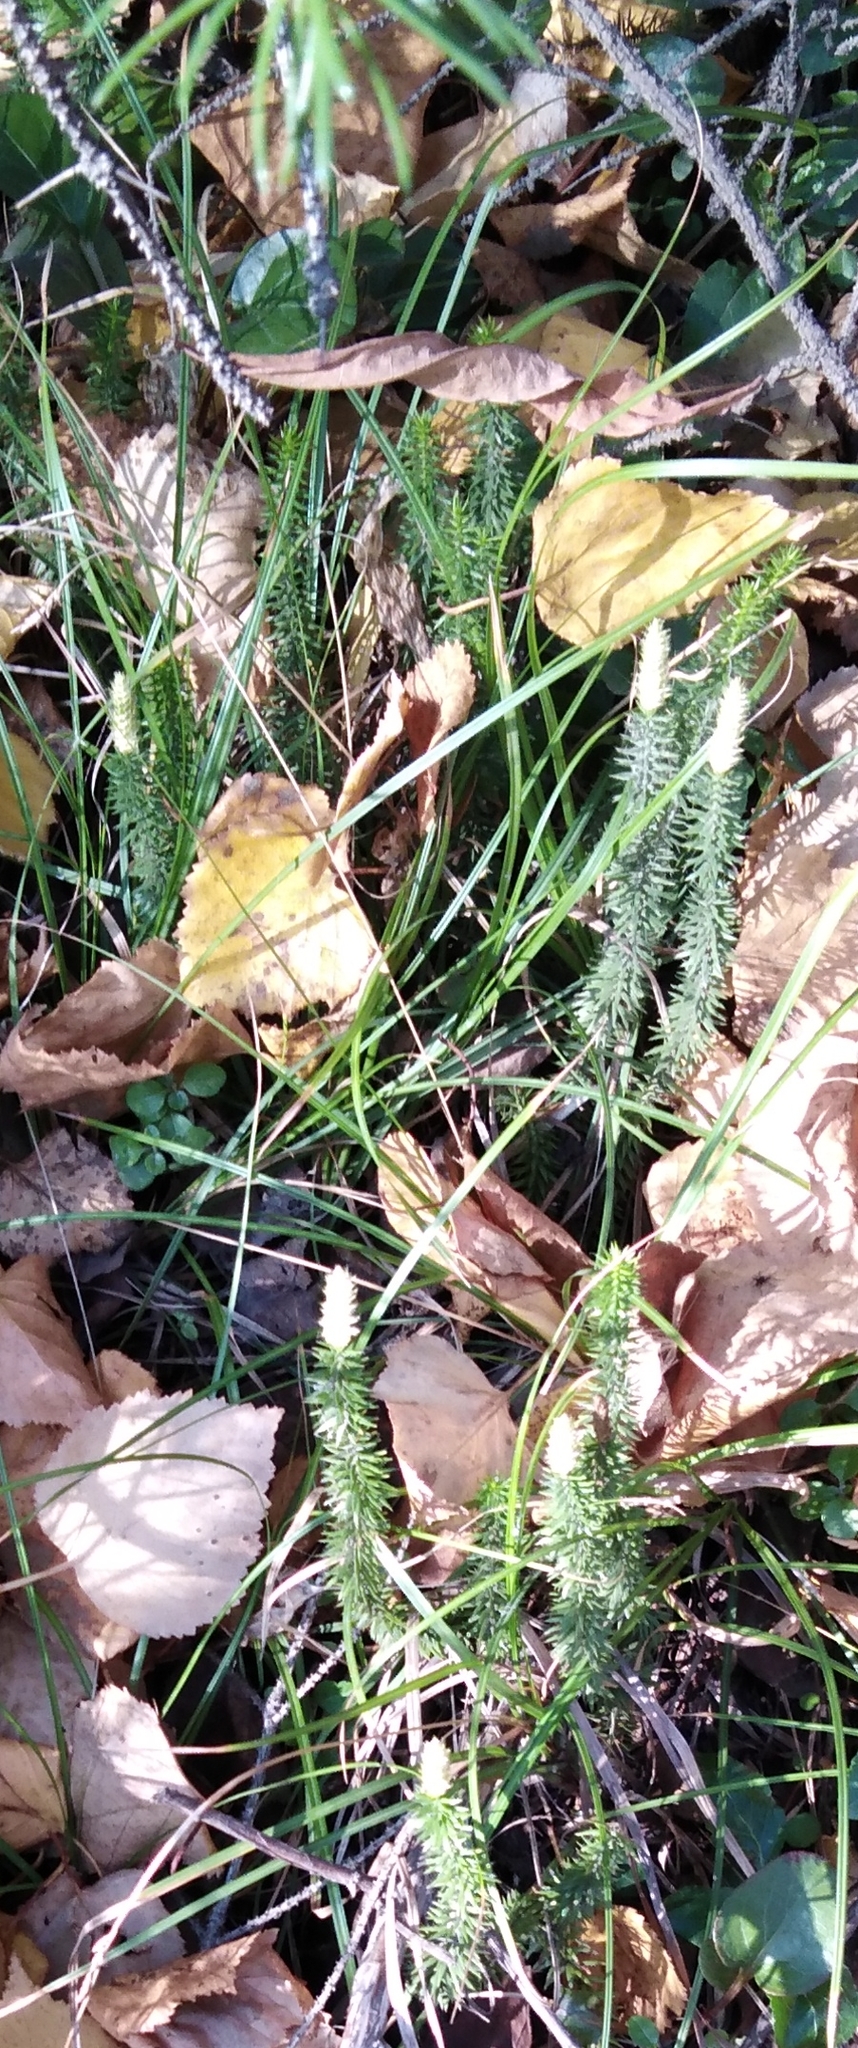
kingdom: Plantae
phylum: Tracheophyta
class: Lycopodiopsida
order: Lycopodiales
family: Lycopodiaceae
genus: Spinulum
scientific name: Spinulum annotinum
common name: Interrupted club-moss
